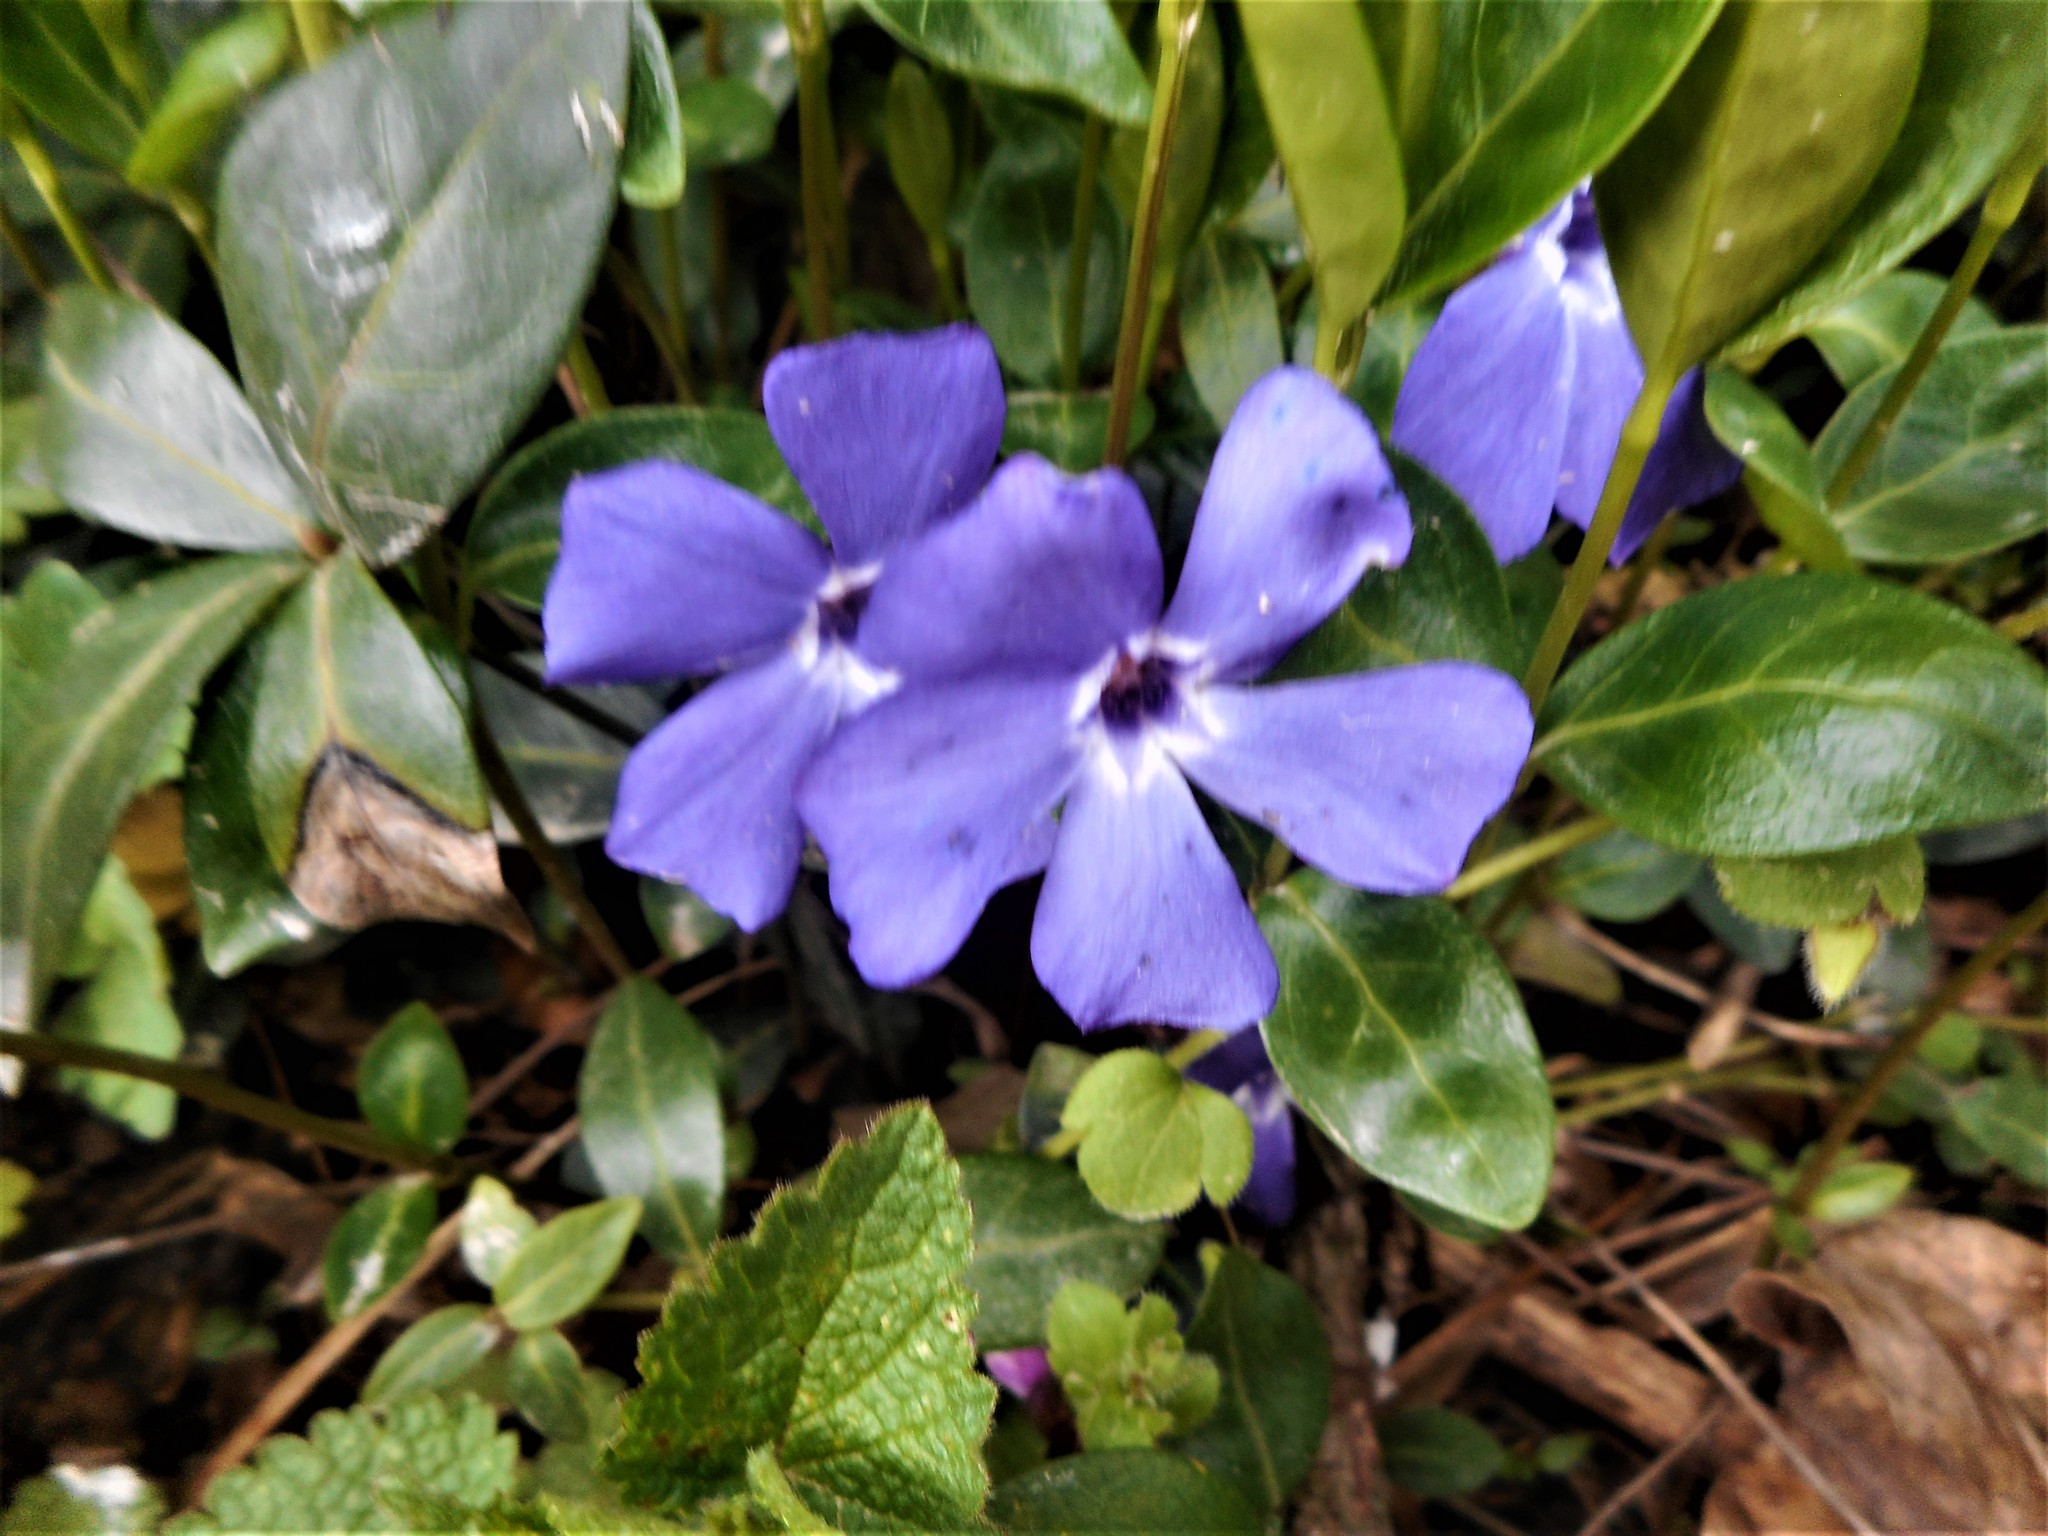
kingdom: Plantae
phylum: Tracheophyta
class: Magnoliopsida
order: Gentianales
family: Apocynaceae
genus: Vinca
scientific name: Vinca minor
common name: Lesser periwinkle
